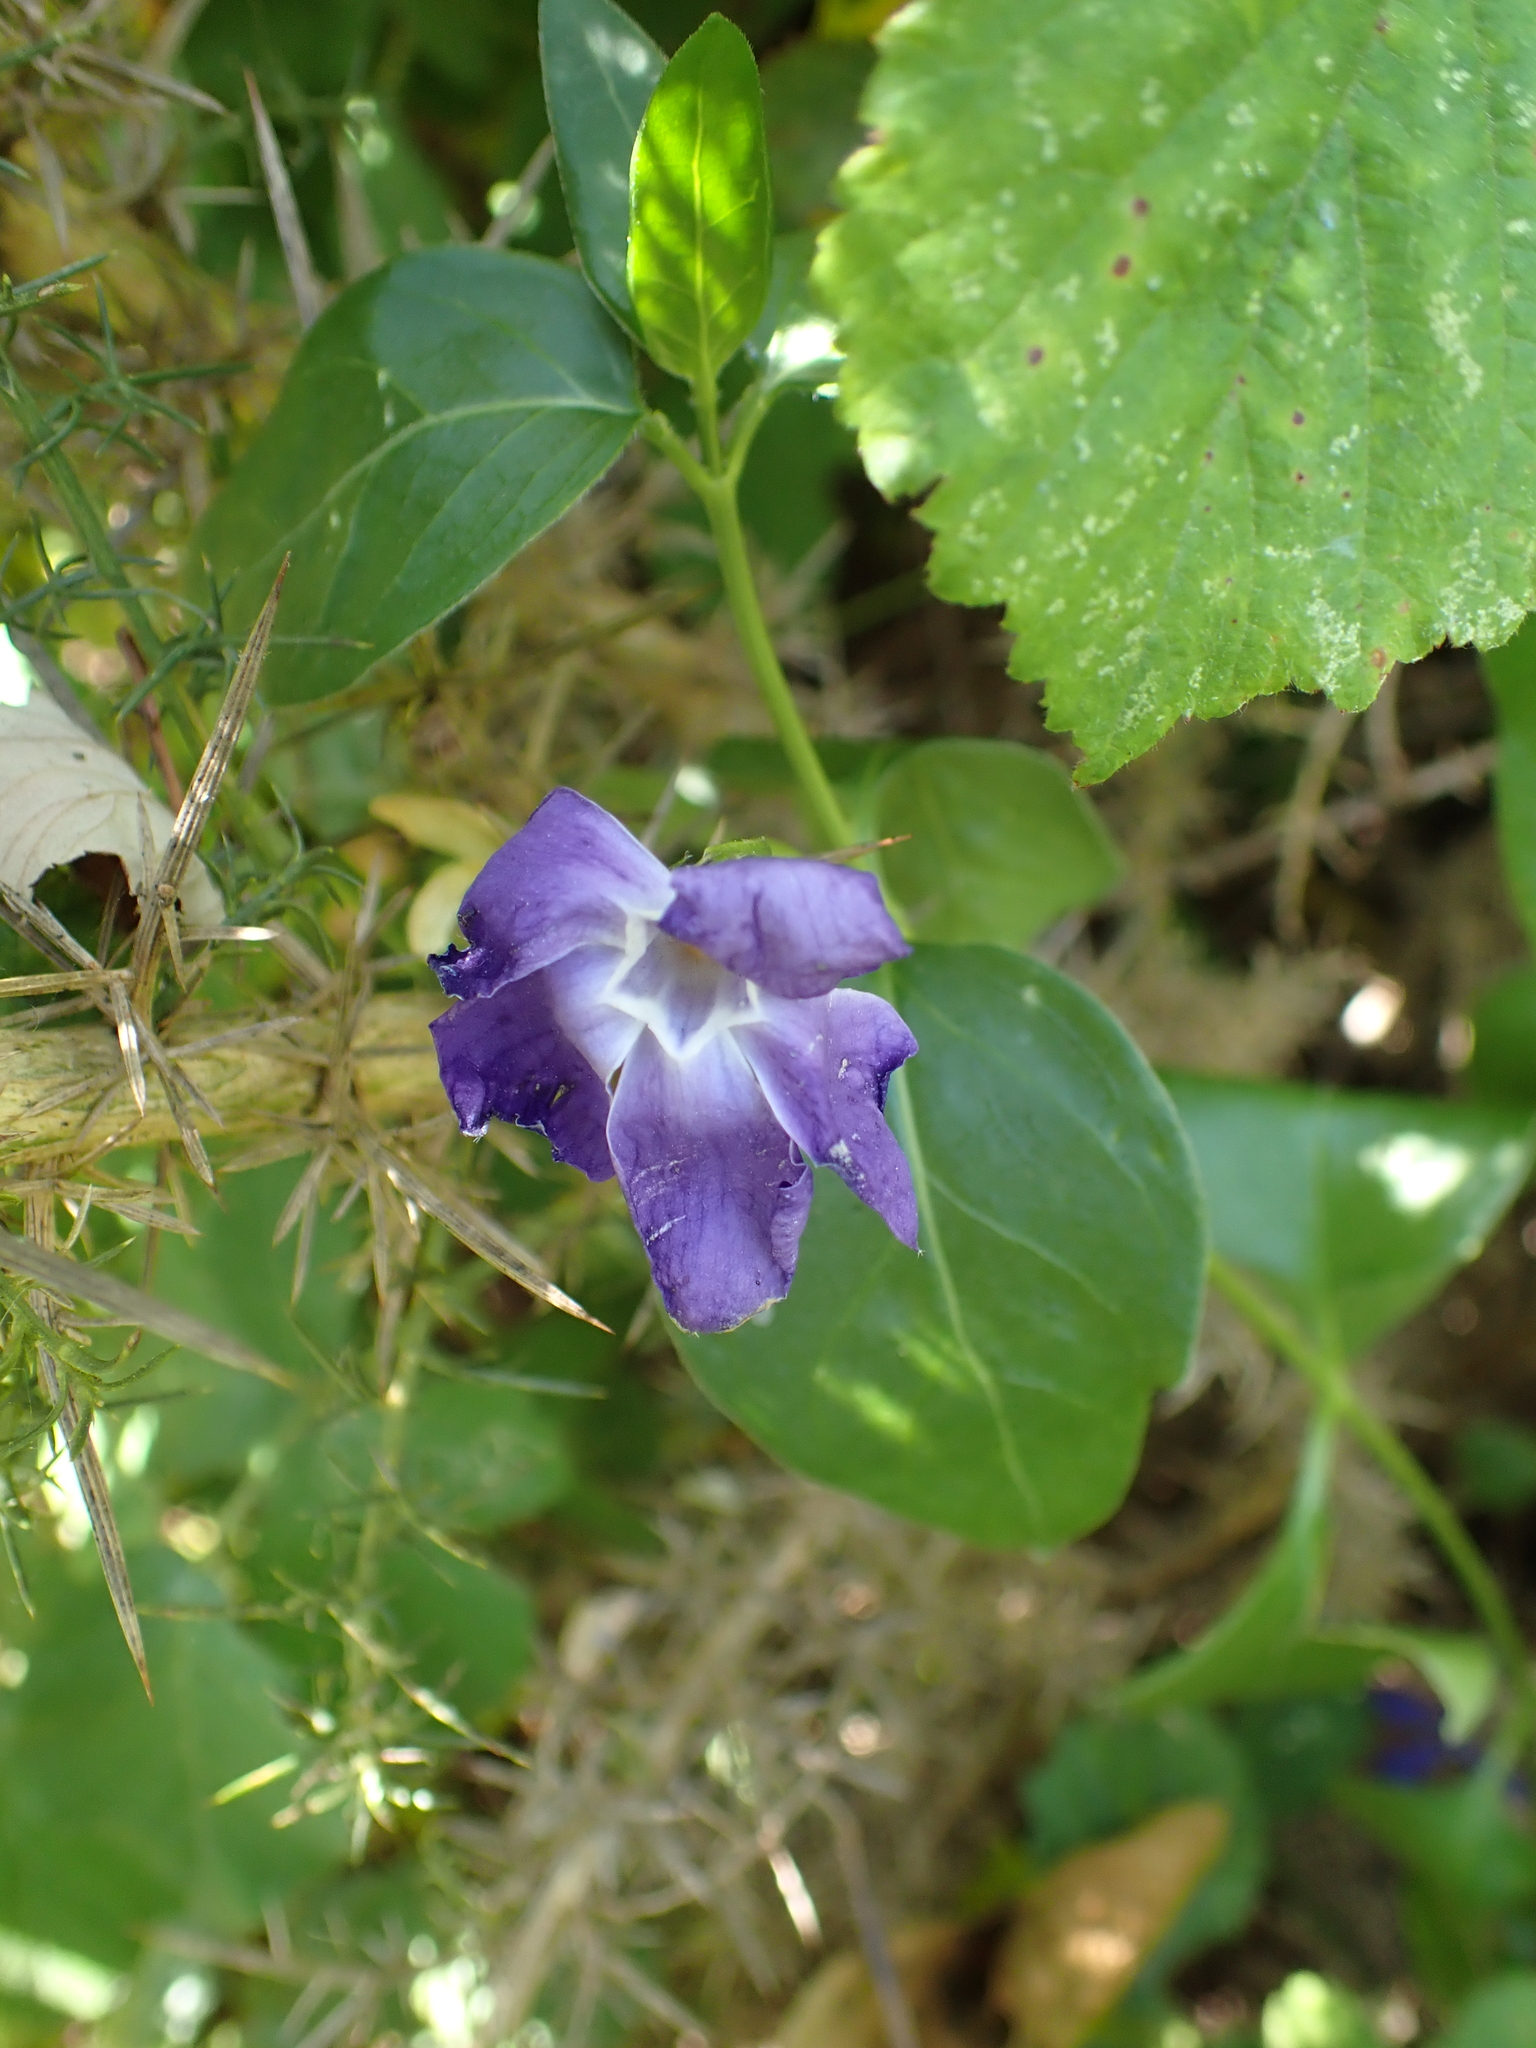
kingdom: Plantae
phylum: Tracheophyta
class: Magnoliopsida
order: Gentianales
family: Apocynaceae
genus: Vinca
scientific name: Vinca major
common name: Greater periwinkle
